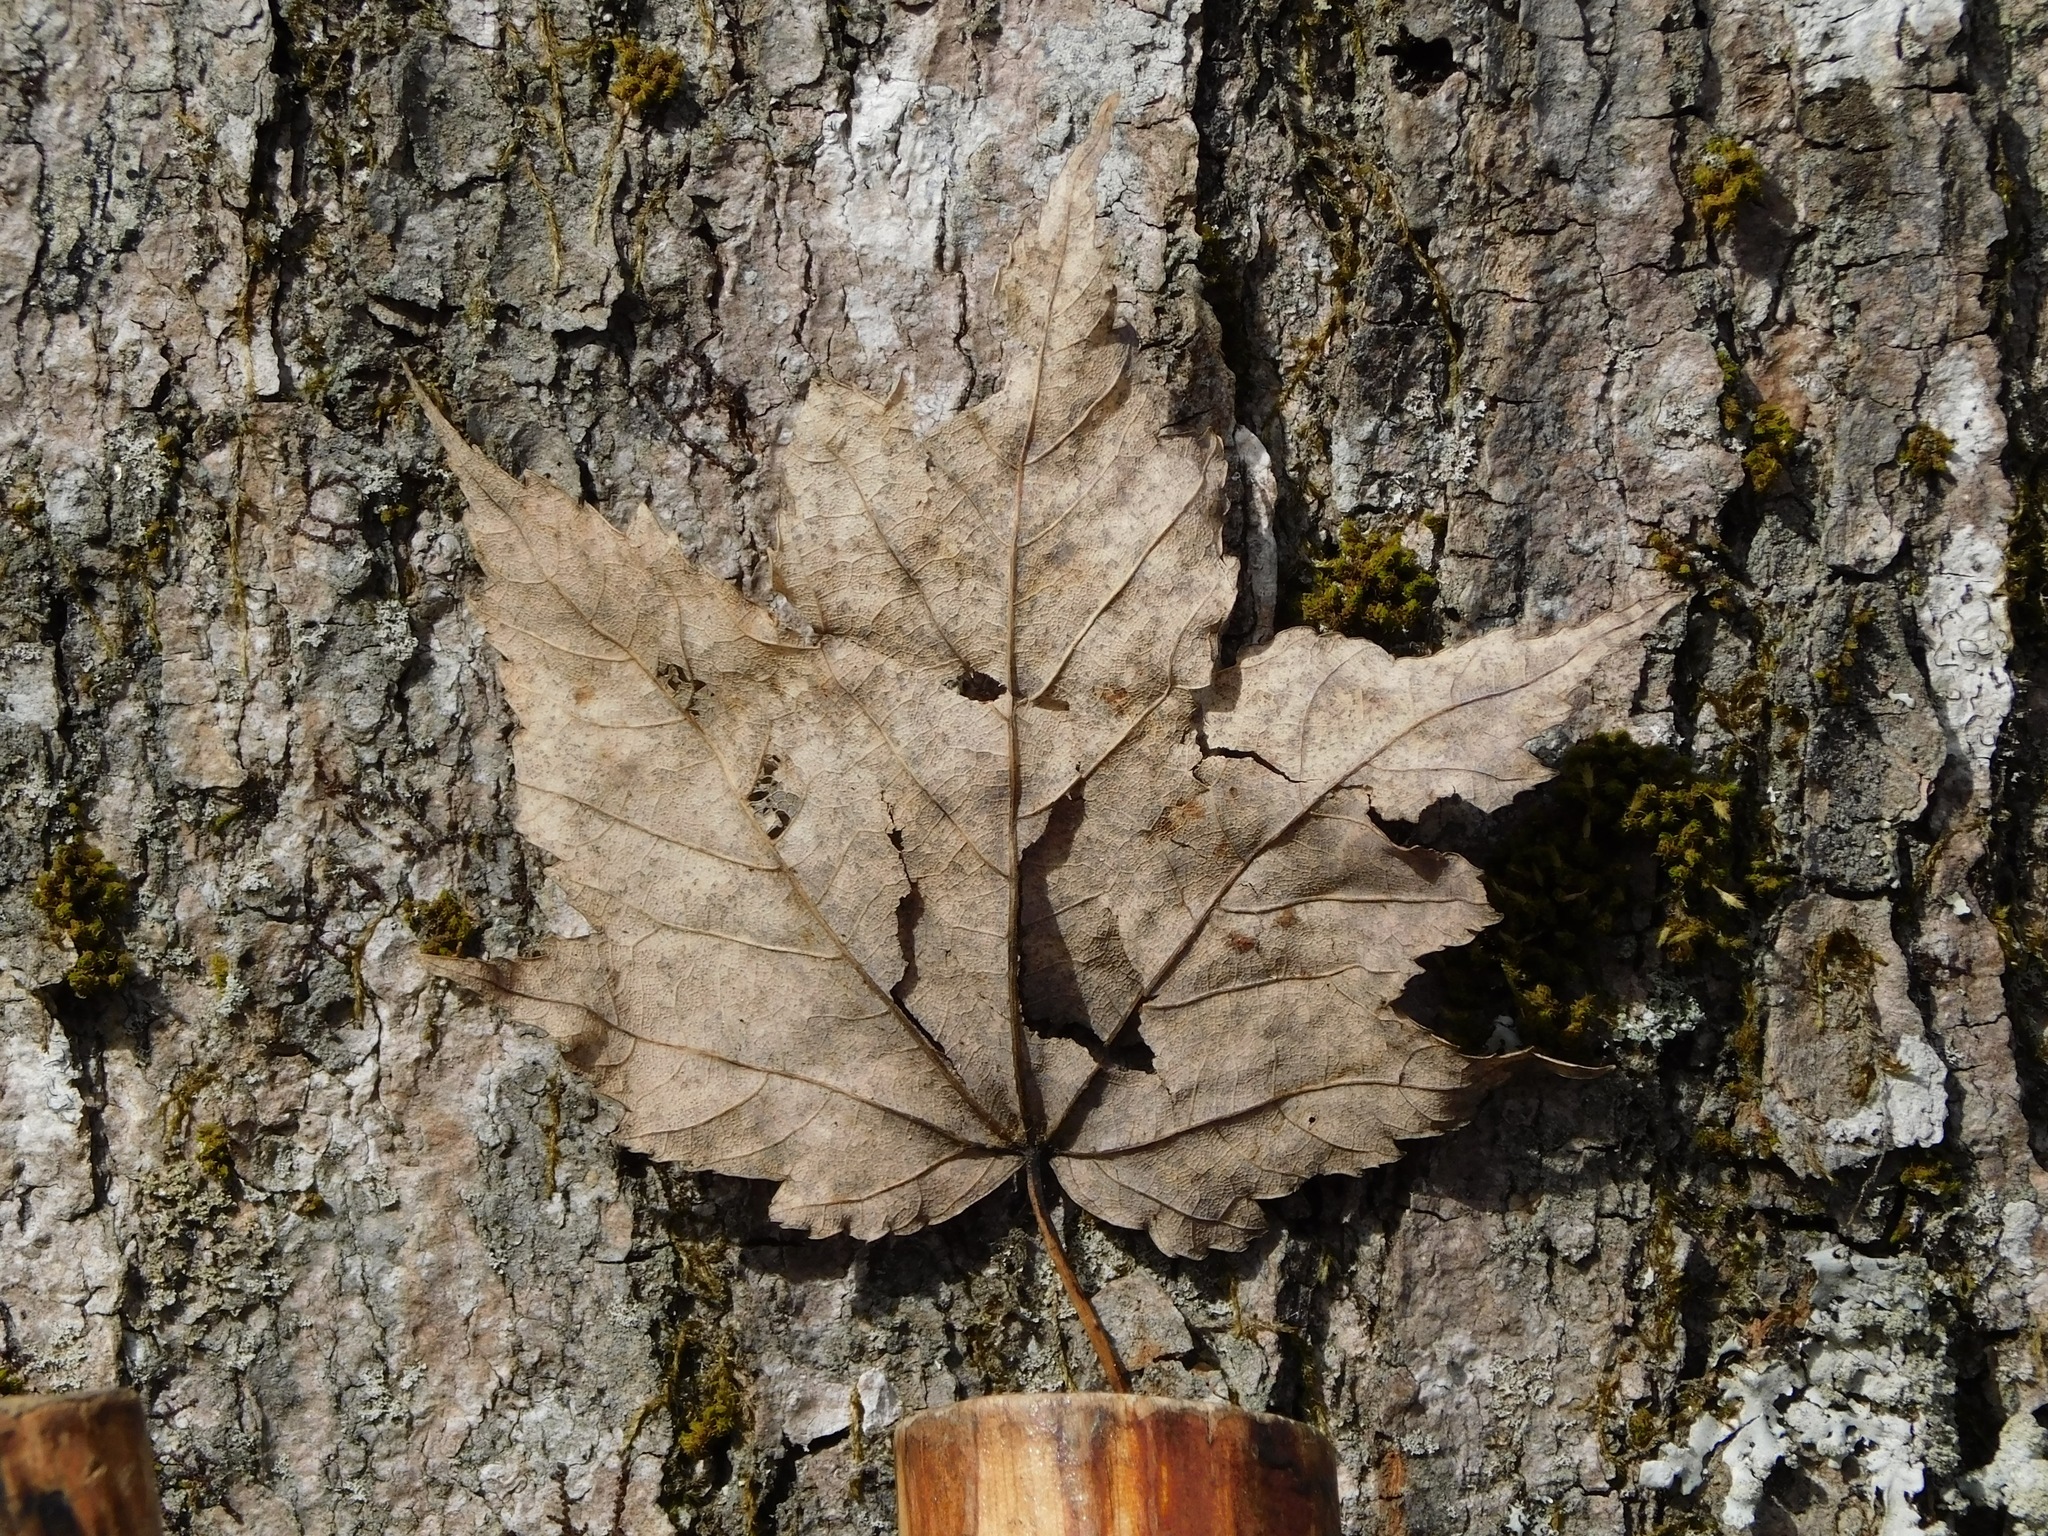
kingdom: Plantae
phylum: Tracheophyta
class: Magnoliopsida
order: Sapindales
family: Sapindaceae
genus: Acer
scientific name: Acer freemanii
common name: Freeman maple
